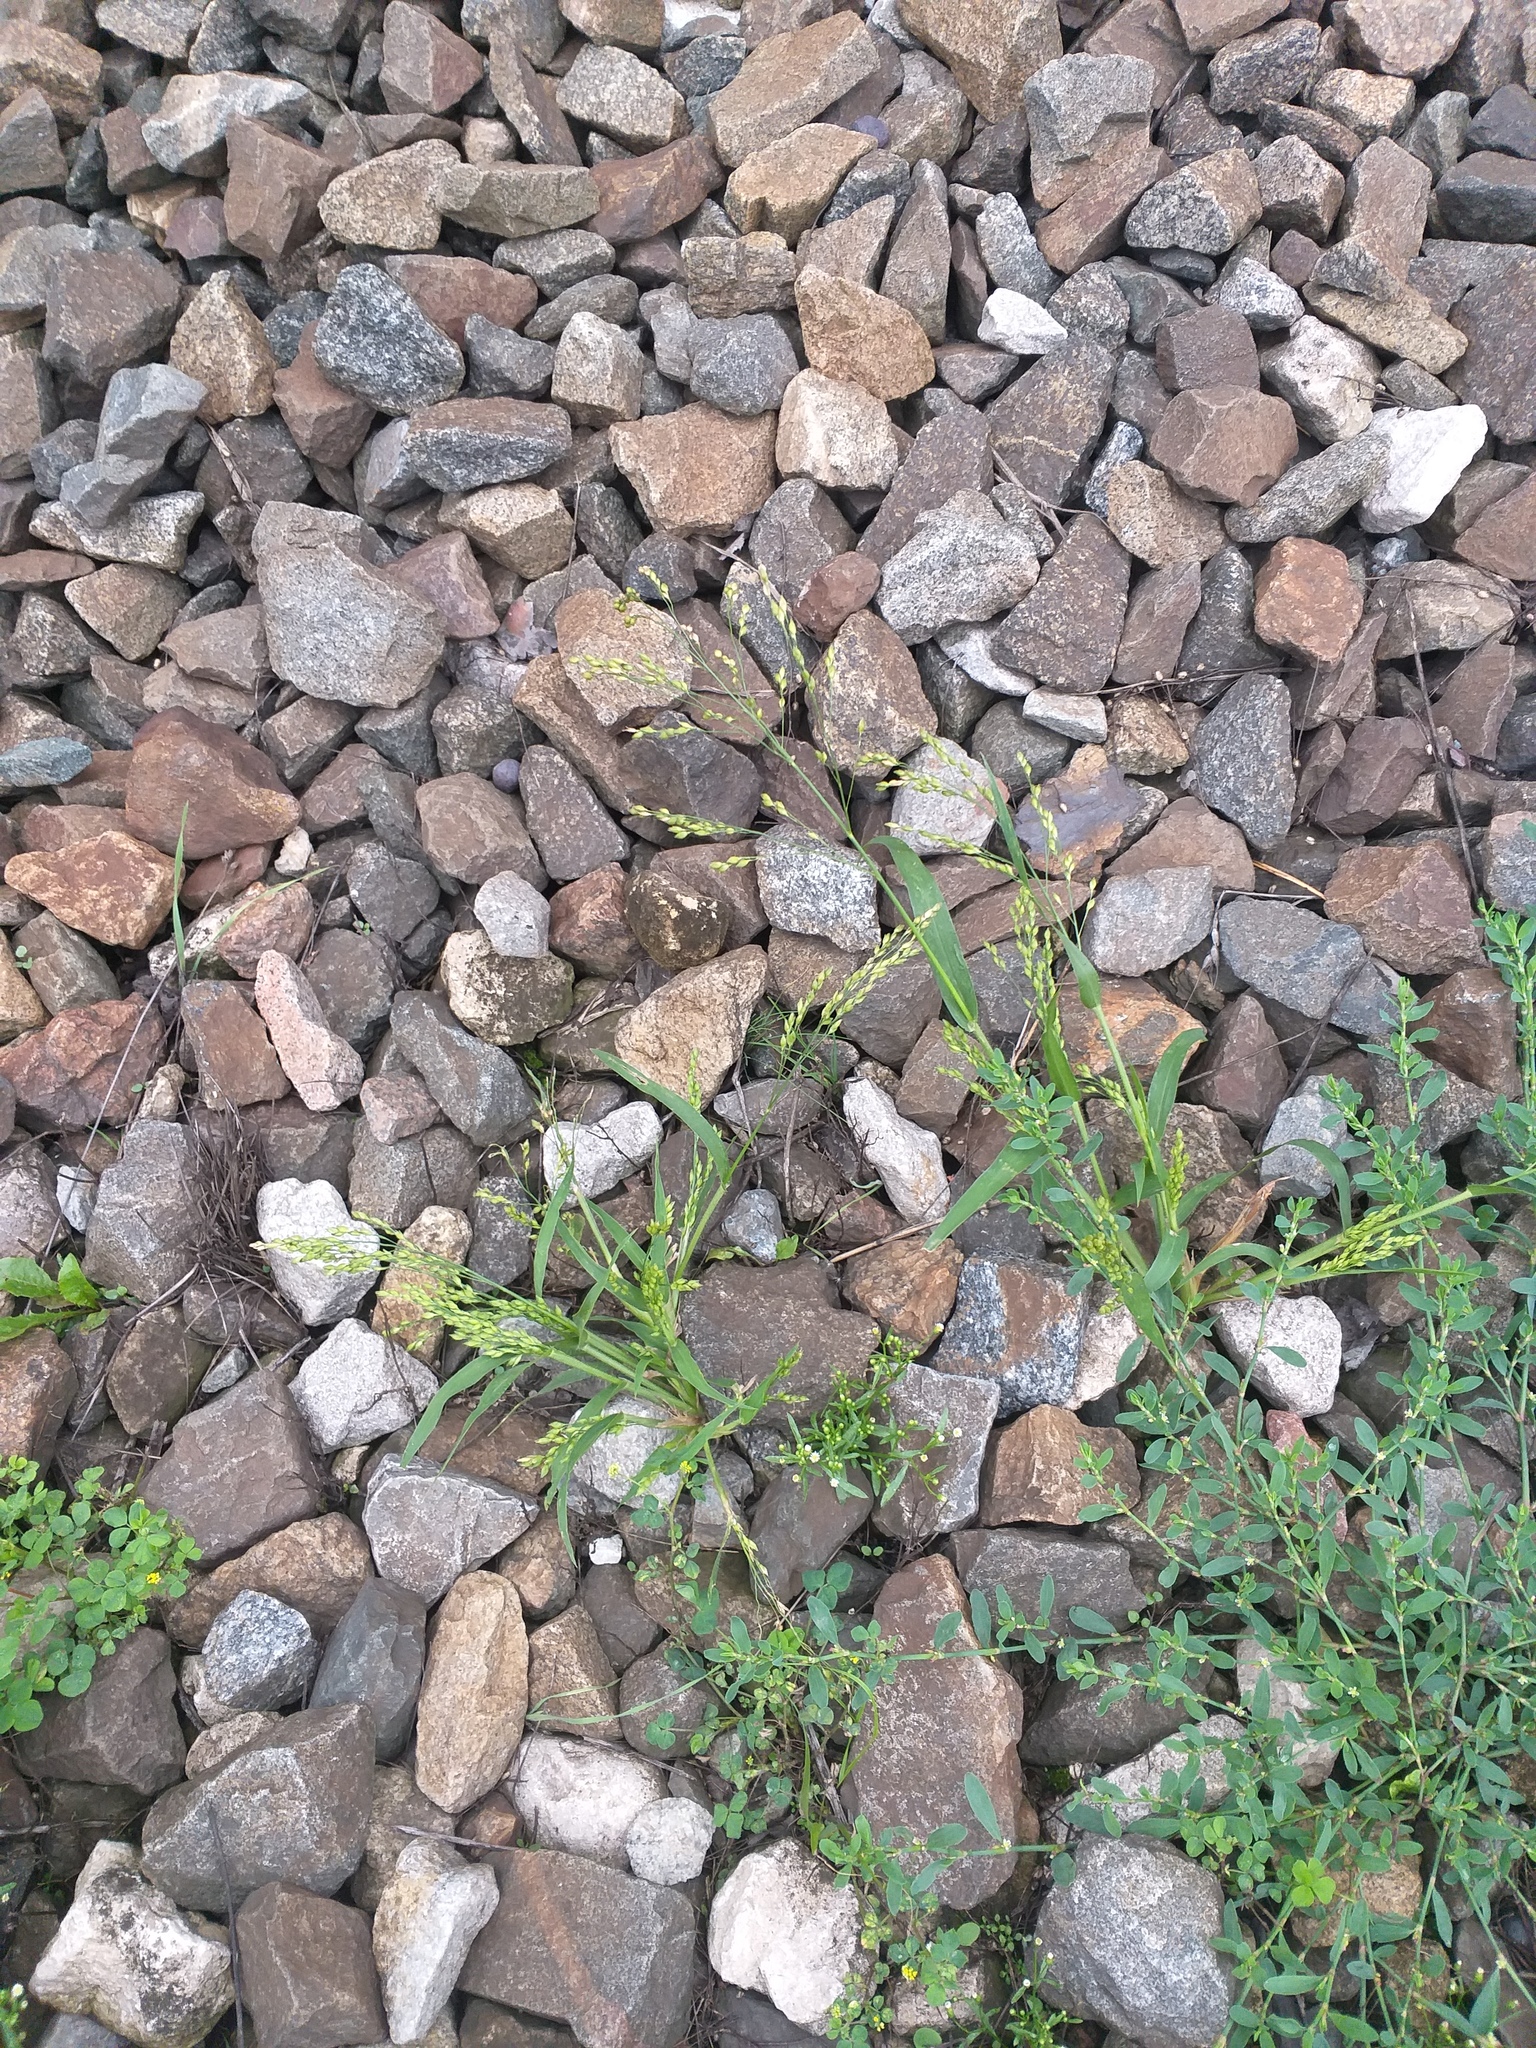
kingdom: Plantae
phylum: Tracheophyta
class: Liliopsida
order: Poales
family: Poaceae
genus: Panicum
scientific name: Panicum miliaceum
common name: Common millet
